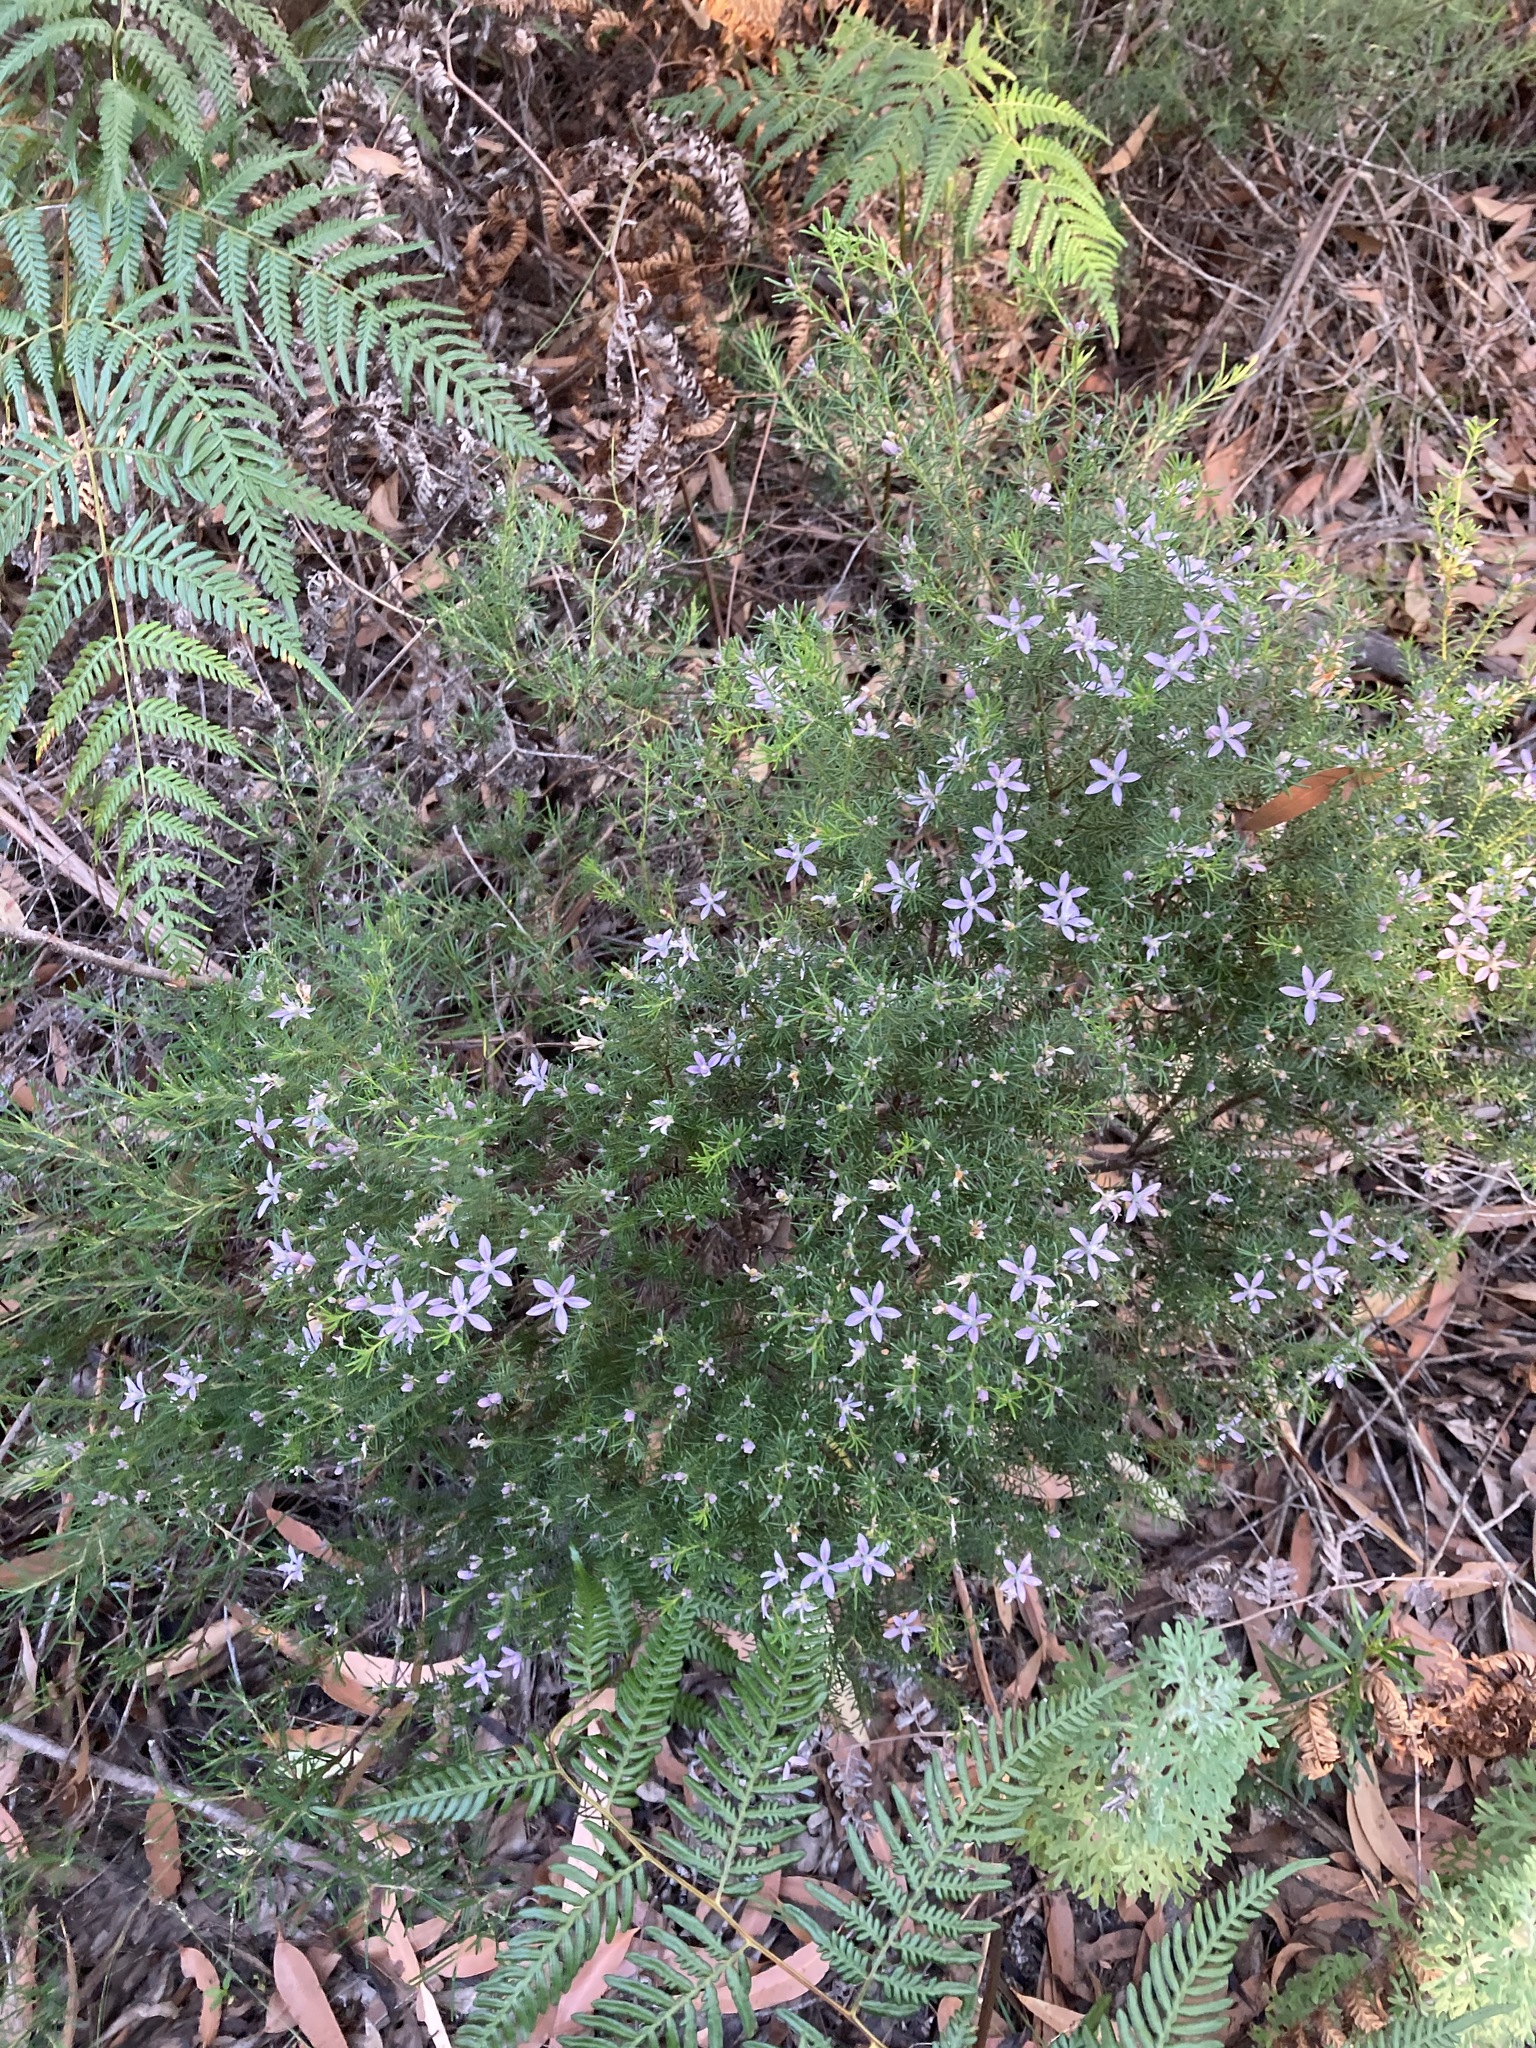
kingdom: Plantae
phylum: Tracheophyta
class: Magnoliopsida
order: Sapindales
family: Rutaceae
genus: Philotheca
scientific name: Philotheca salsolifolia
